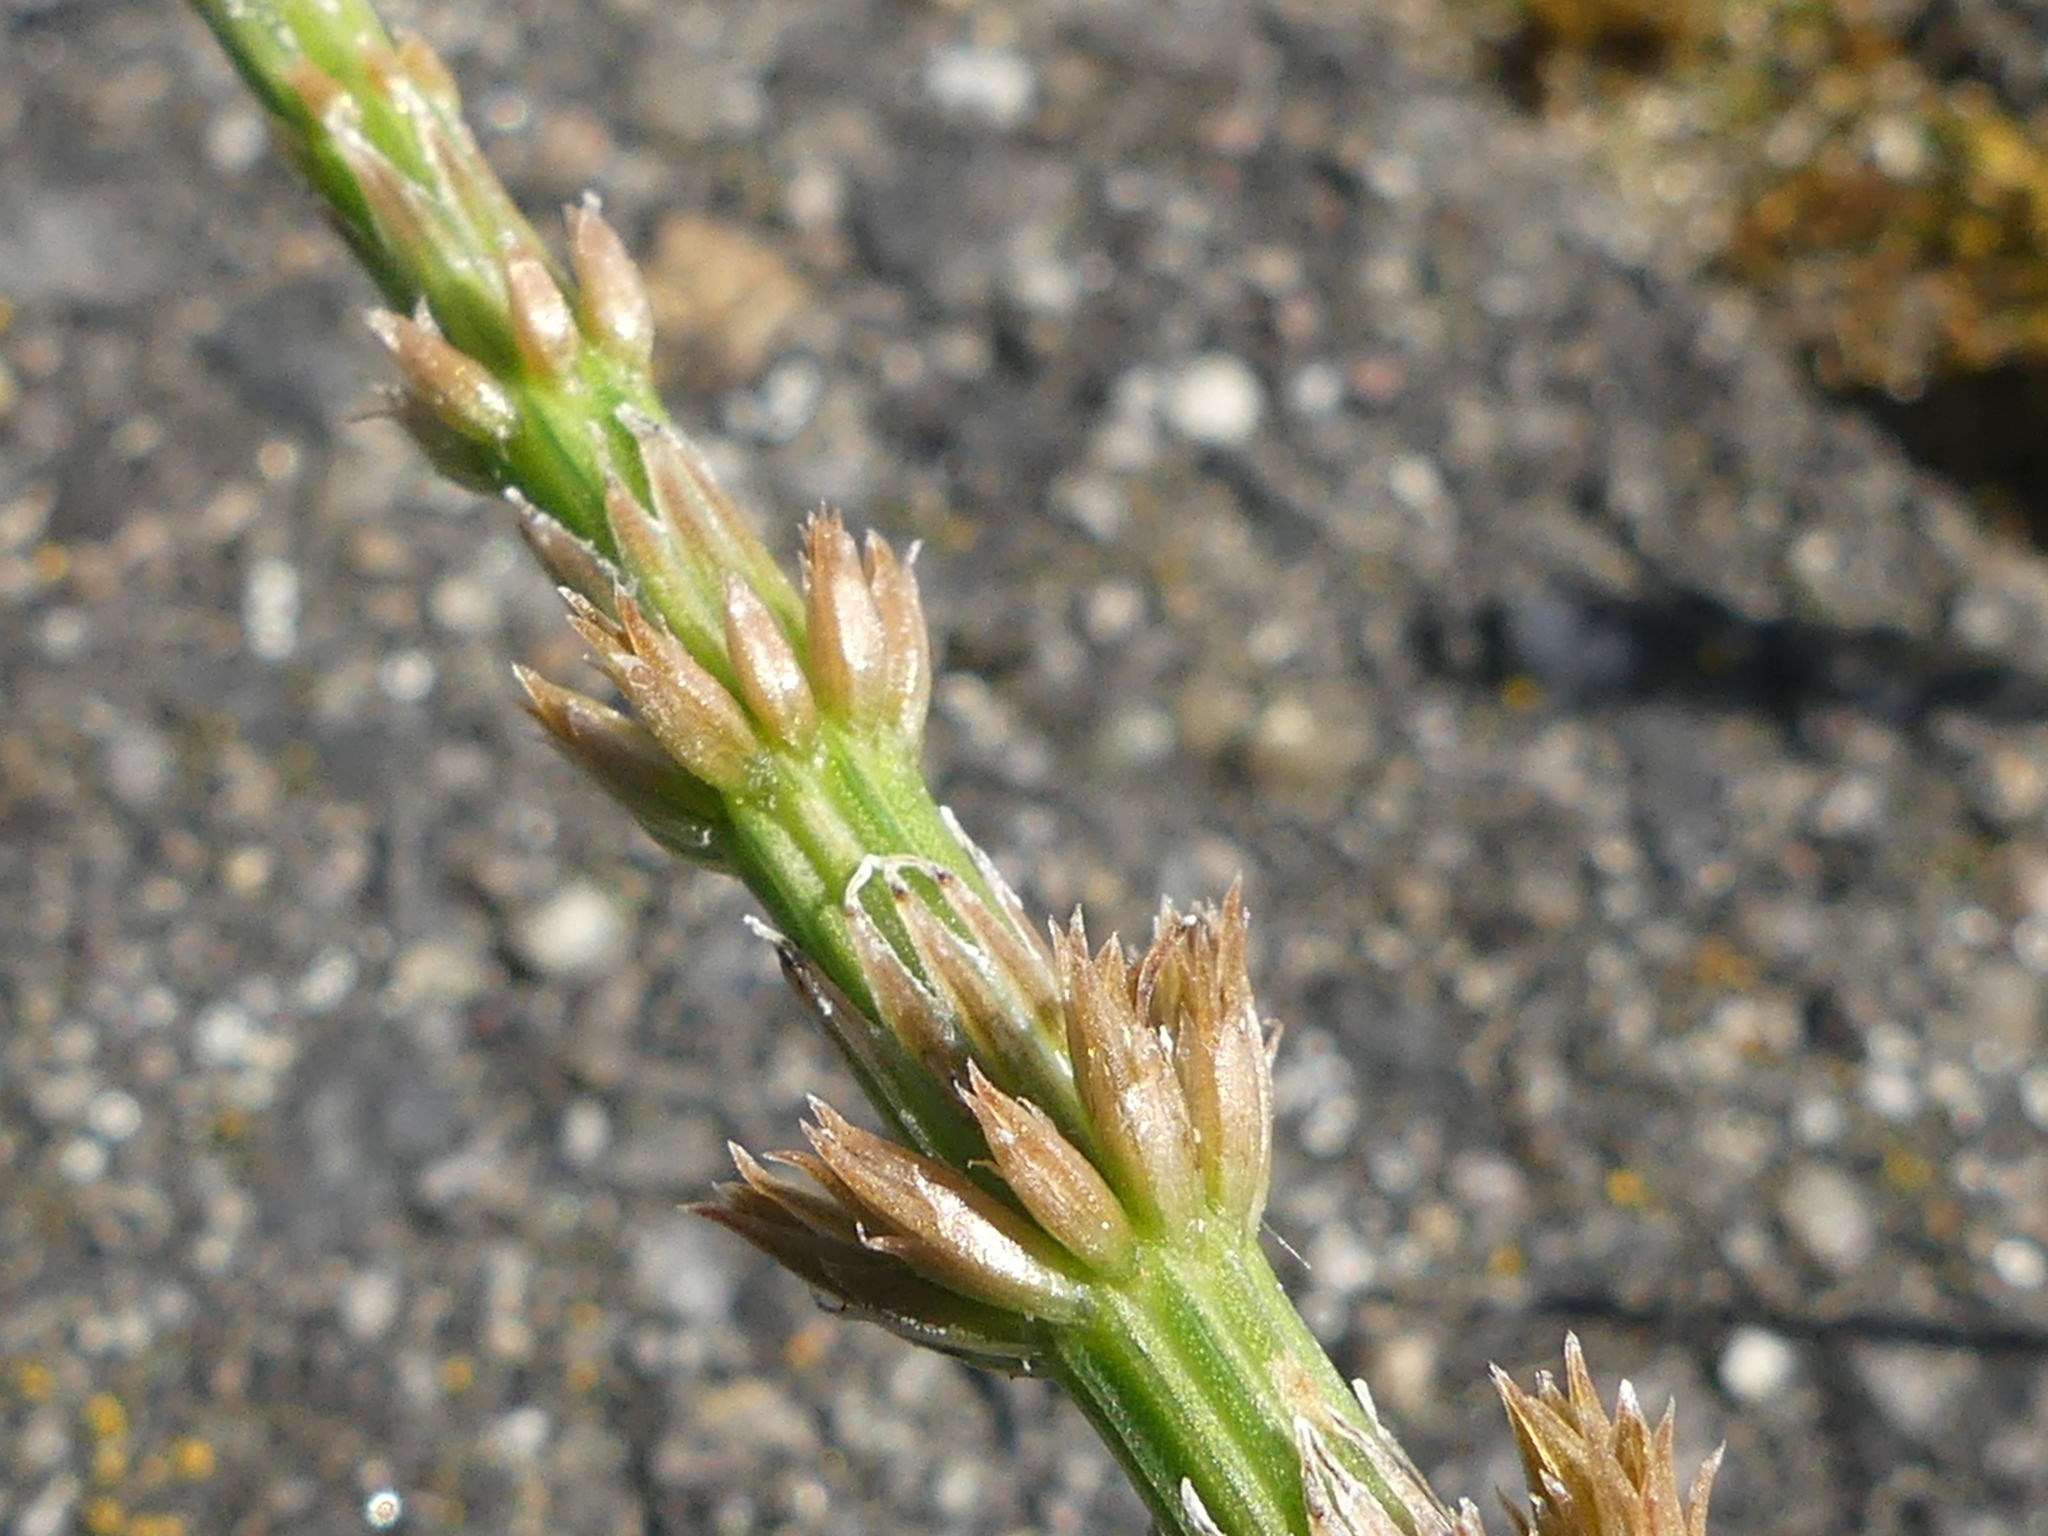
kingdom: Plantae
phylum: Tracheophyta
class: Polypodiopsida
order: Equisetales
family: Equisetaceae
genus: Equisetum
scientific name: Equisetum arvense
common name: Field horsetail
